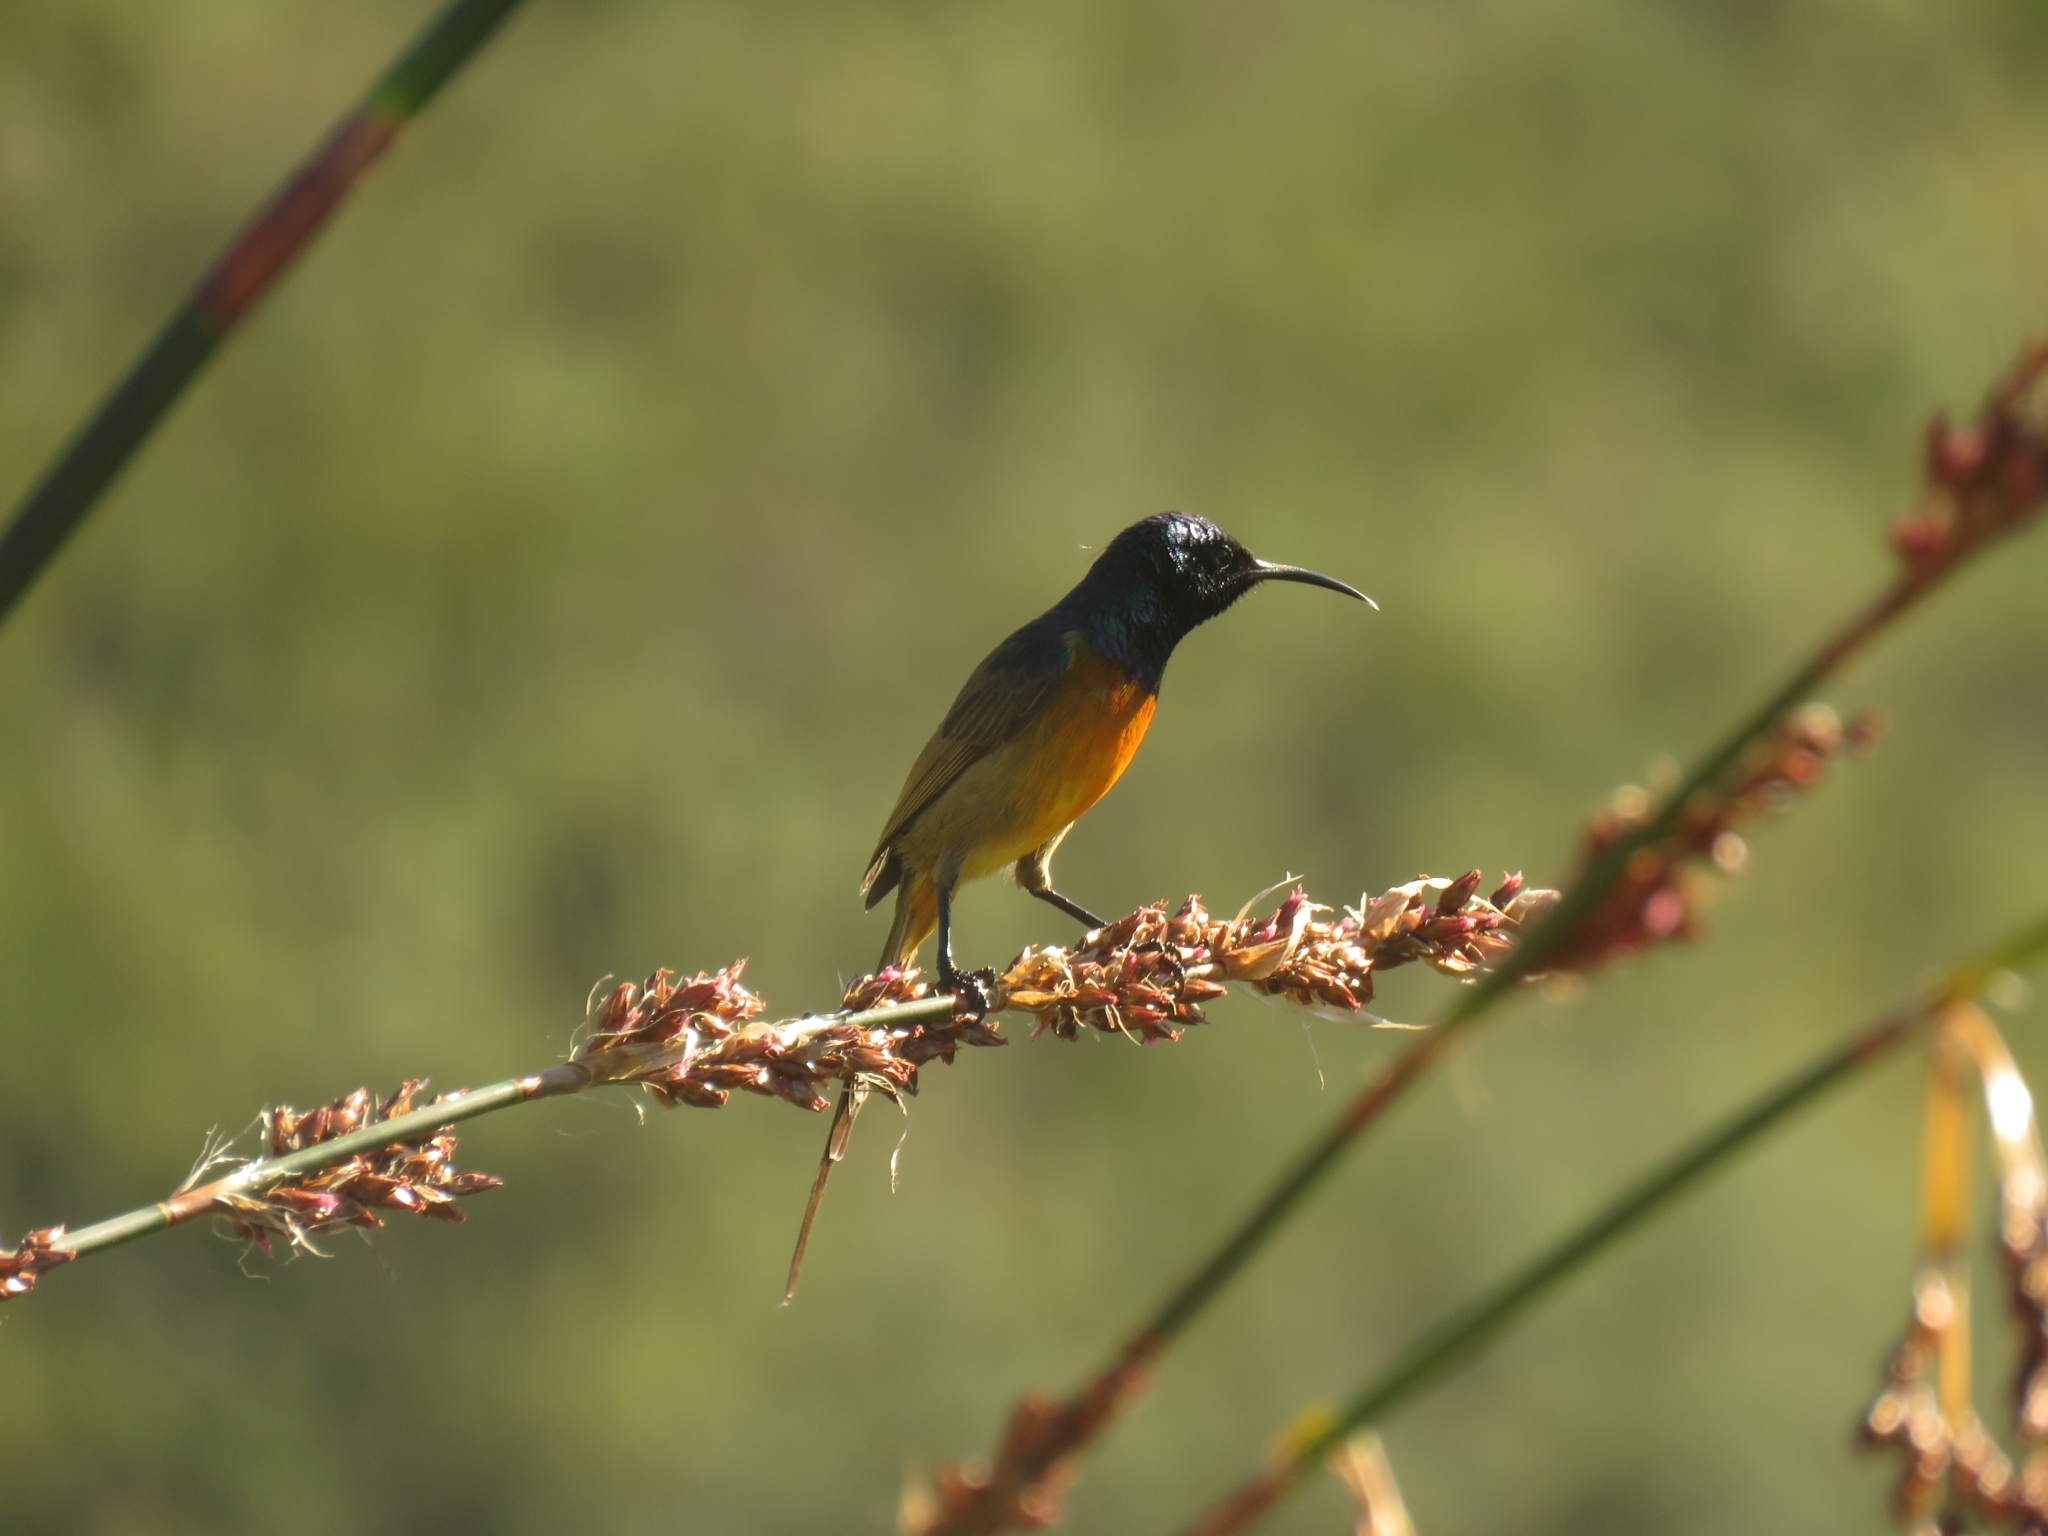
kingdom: Animalia
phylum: Chordata
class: Aves
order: Passeriformes
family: Nectariniidae
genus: Anthobaphes
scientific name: Anthobaphes violacea
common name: Orange-breasted sunbird
